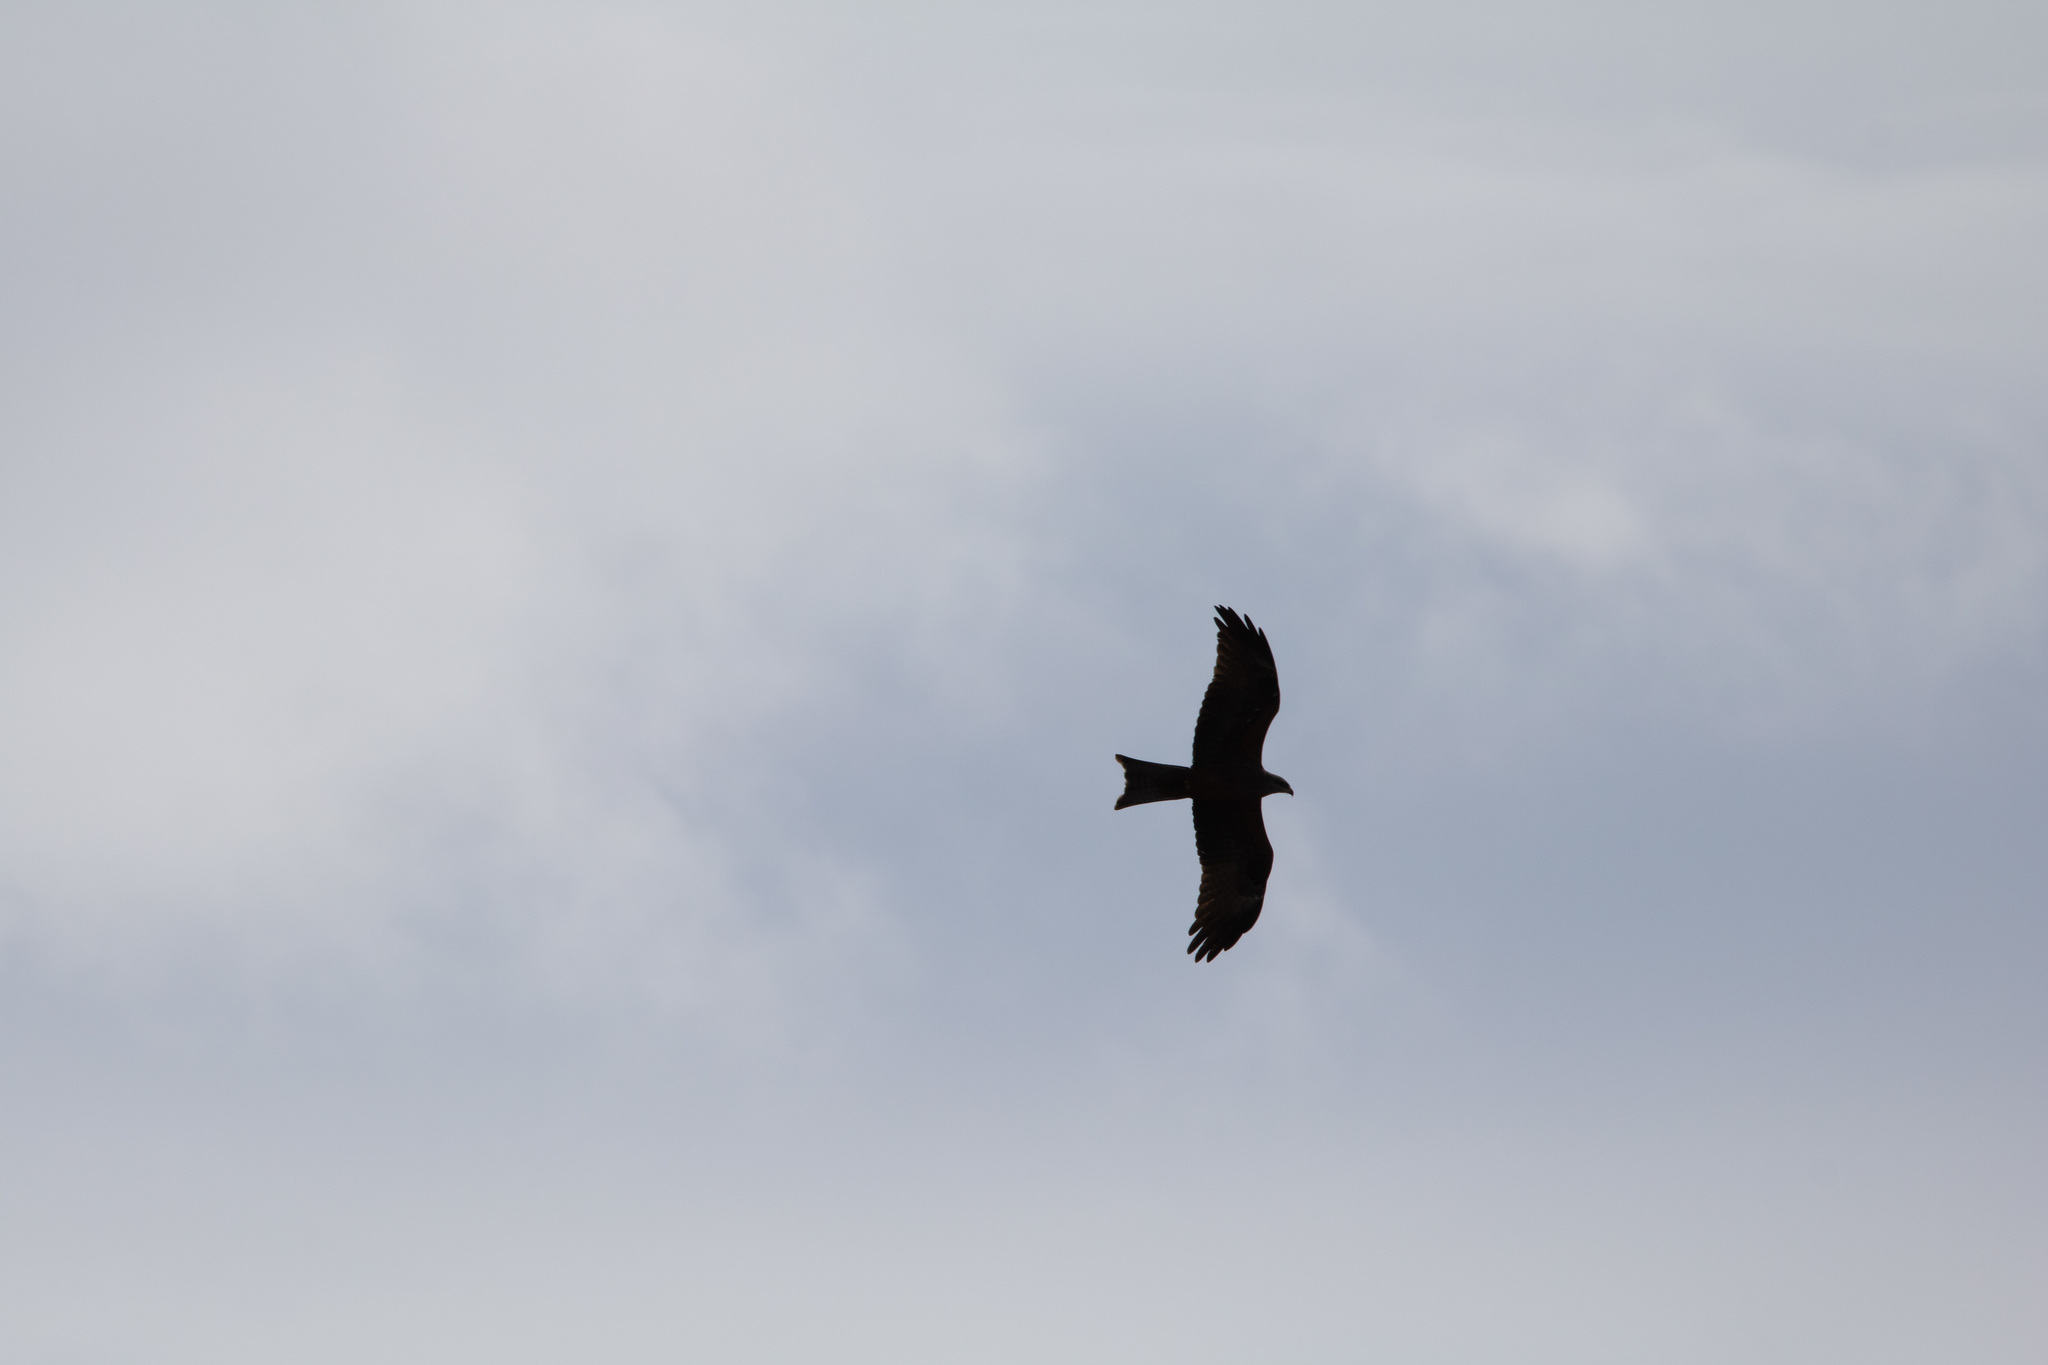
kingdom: Animalia
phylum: Chordata
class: Aves
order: Accipitriformes
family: Accipitridae
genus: Milvus
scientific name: Milvus migrans
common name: Black kite
